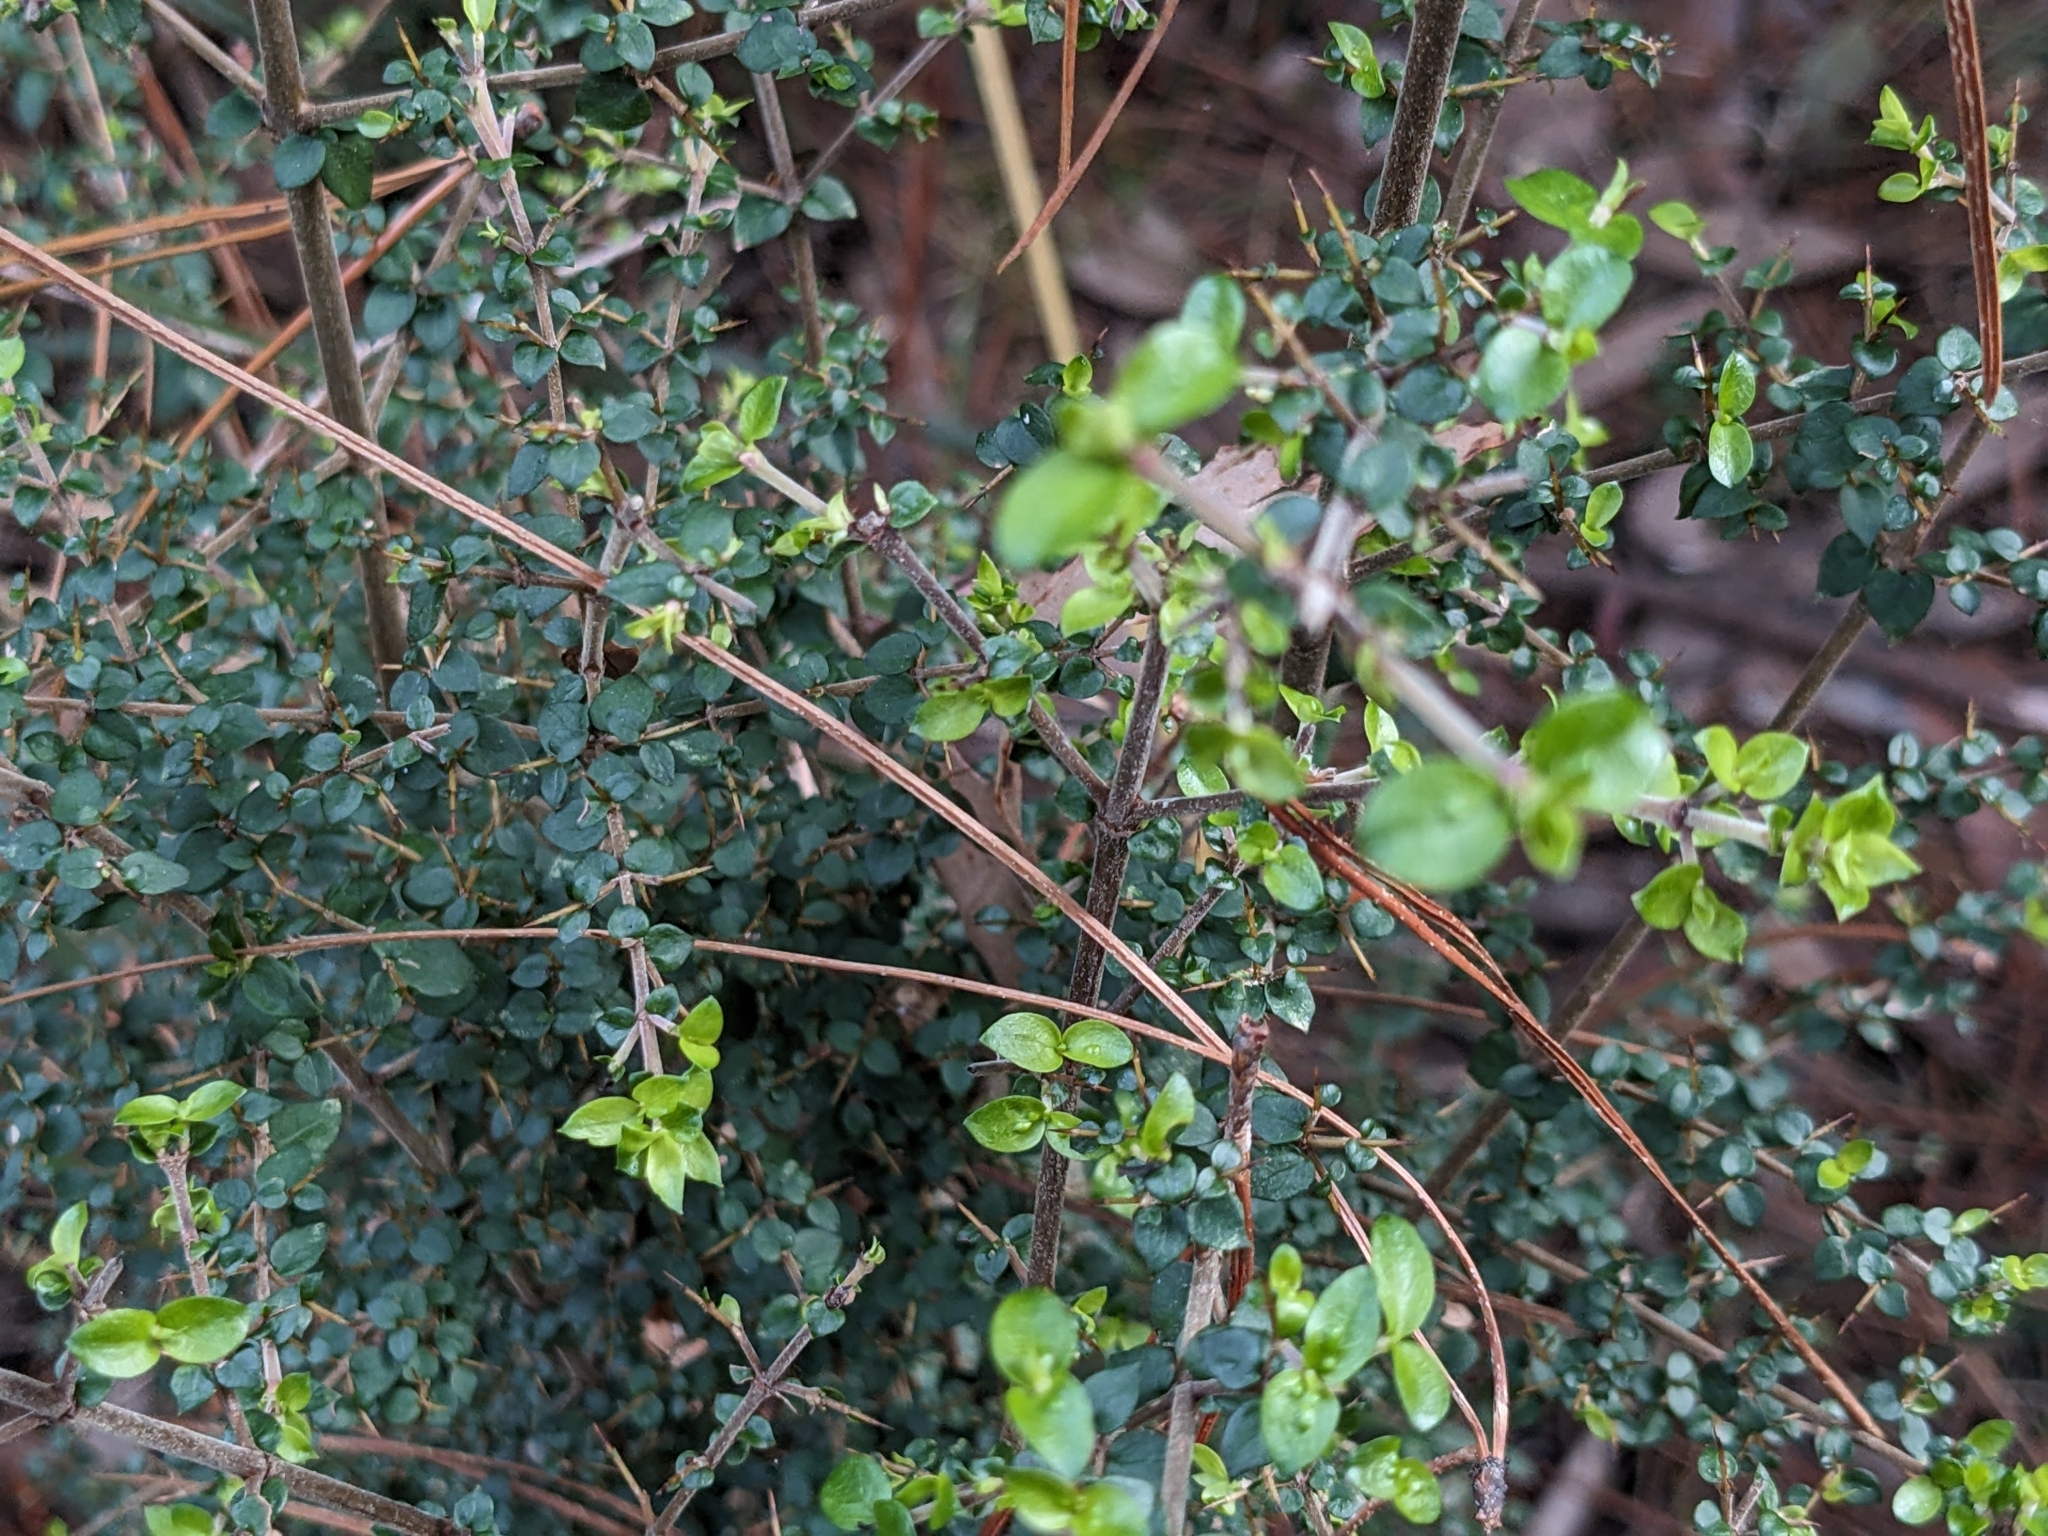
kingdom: Plantae
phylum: Tracheophyta
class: Magnoliopsida
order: Gentianales
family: Rubiaceae
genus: Coprosma
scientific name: Coprosma quadrifida
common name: Prickly currantbush
